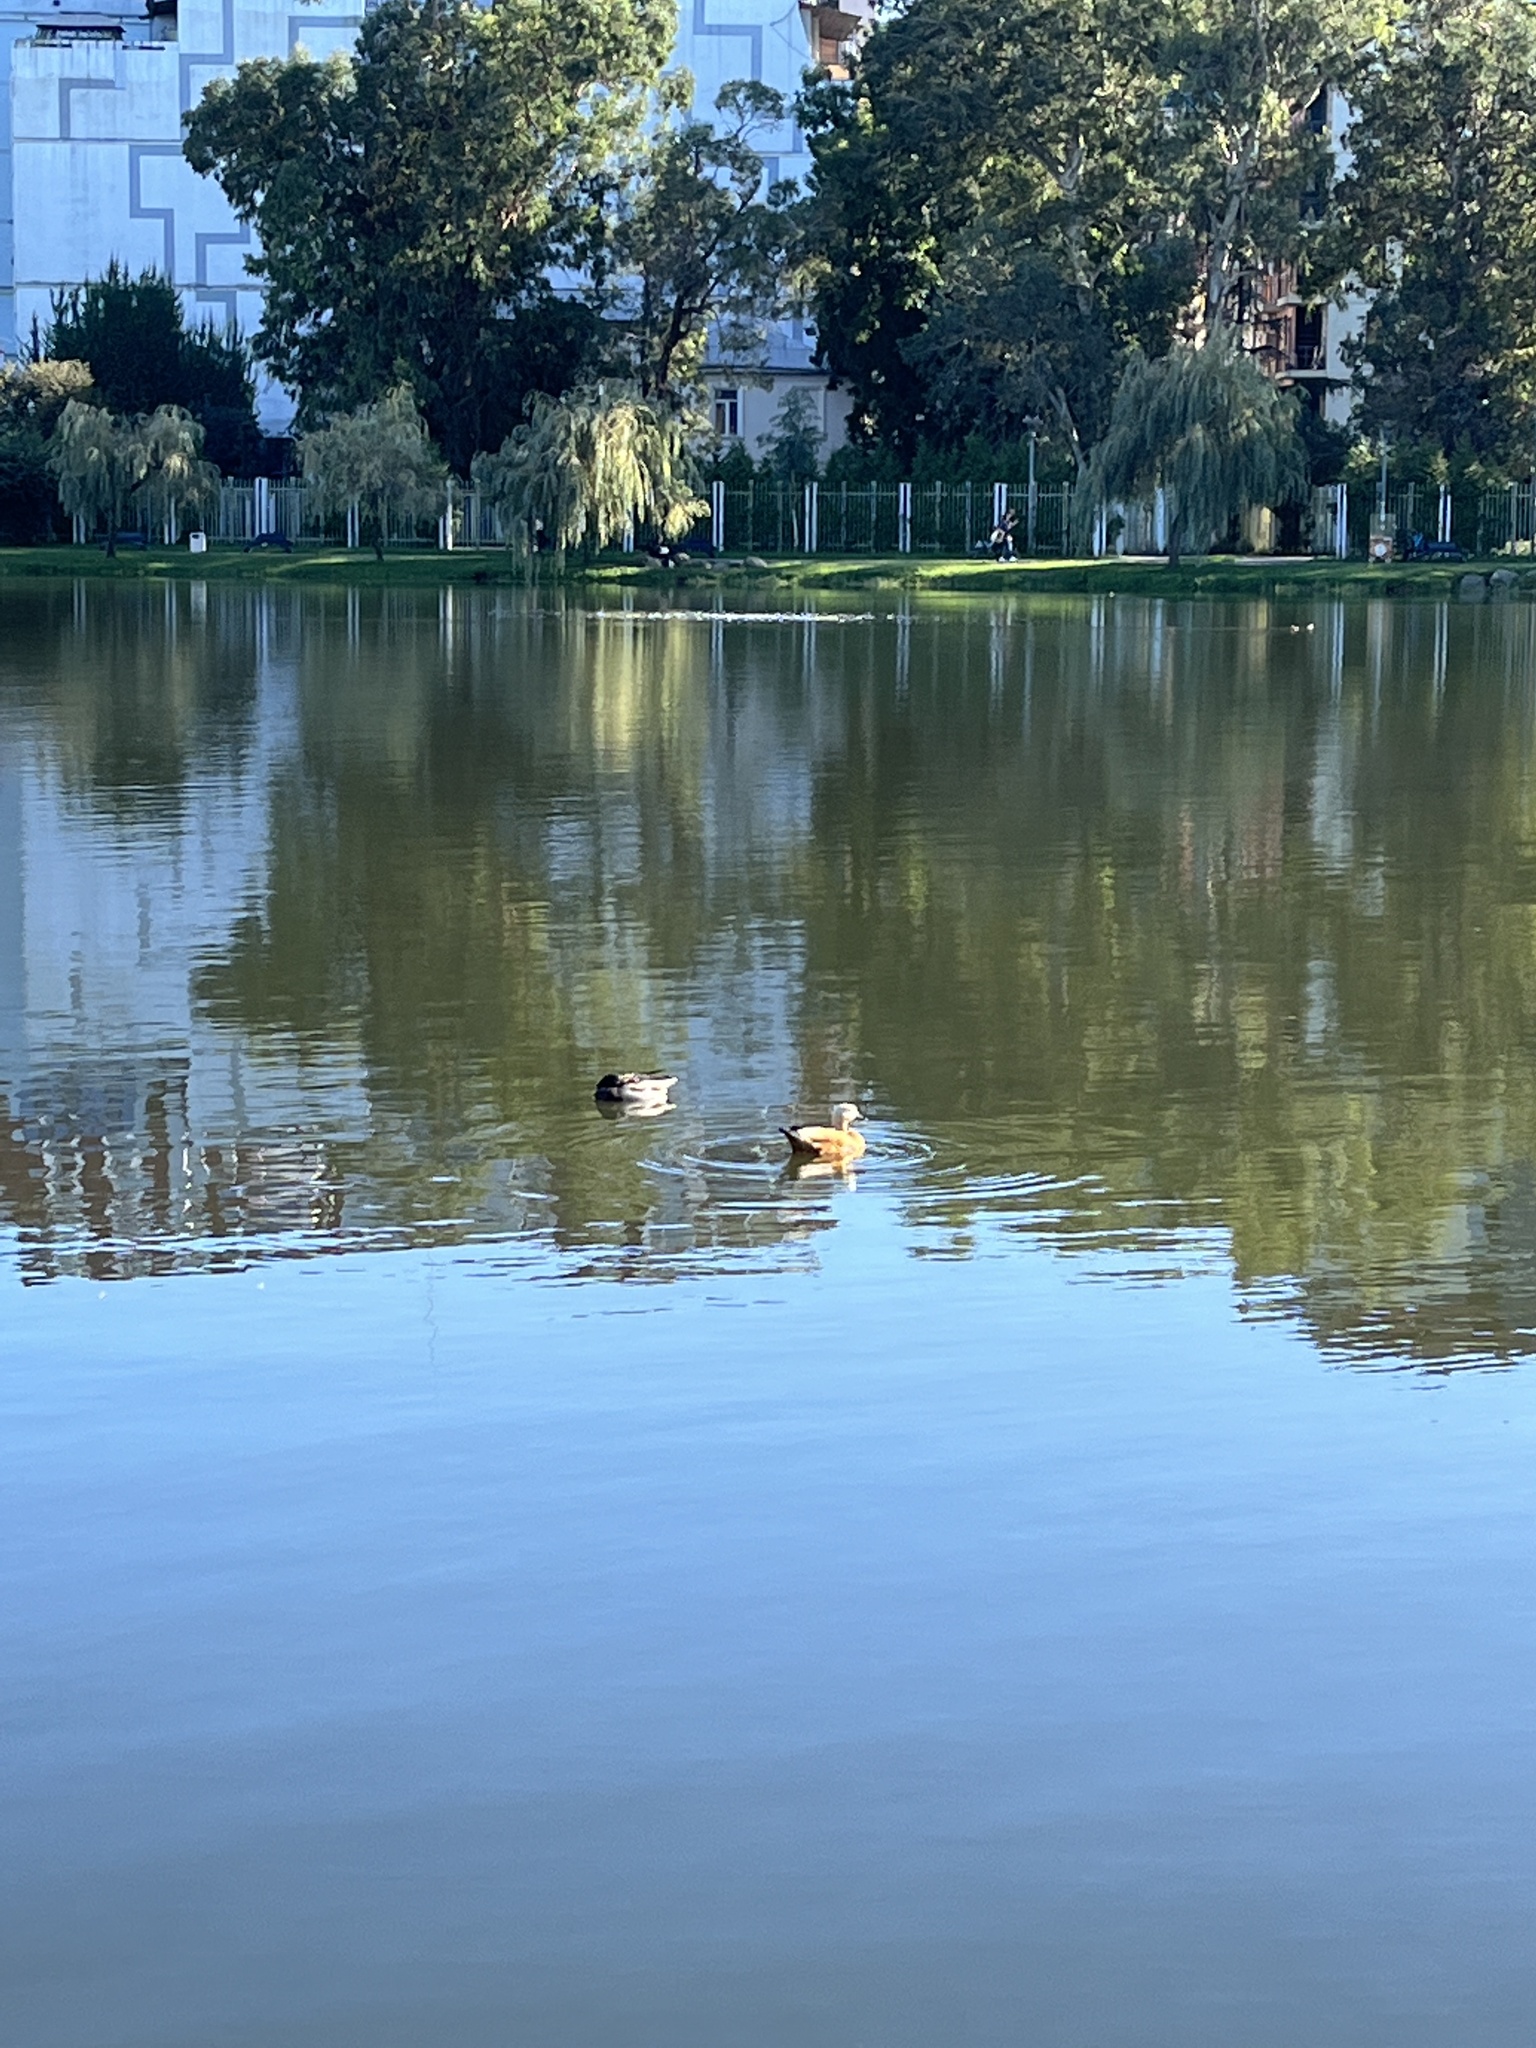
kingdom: Animalia
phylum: Chordata
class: Aves
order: Anseriformes
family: Anatidae
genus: Tadorna
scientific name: Tadorna ferruginea
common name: Ruddy shelduck
